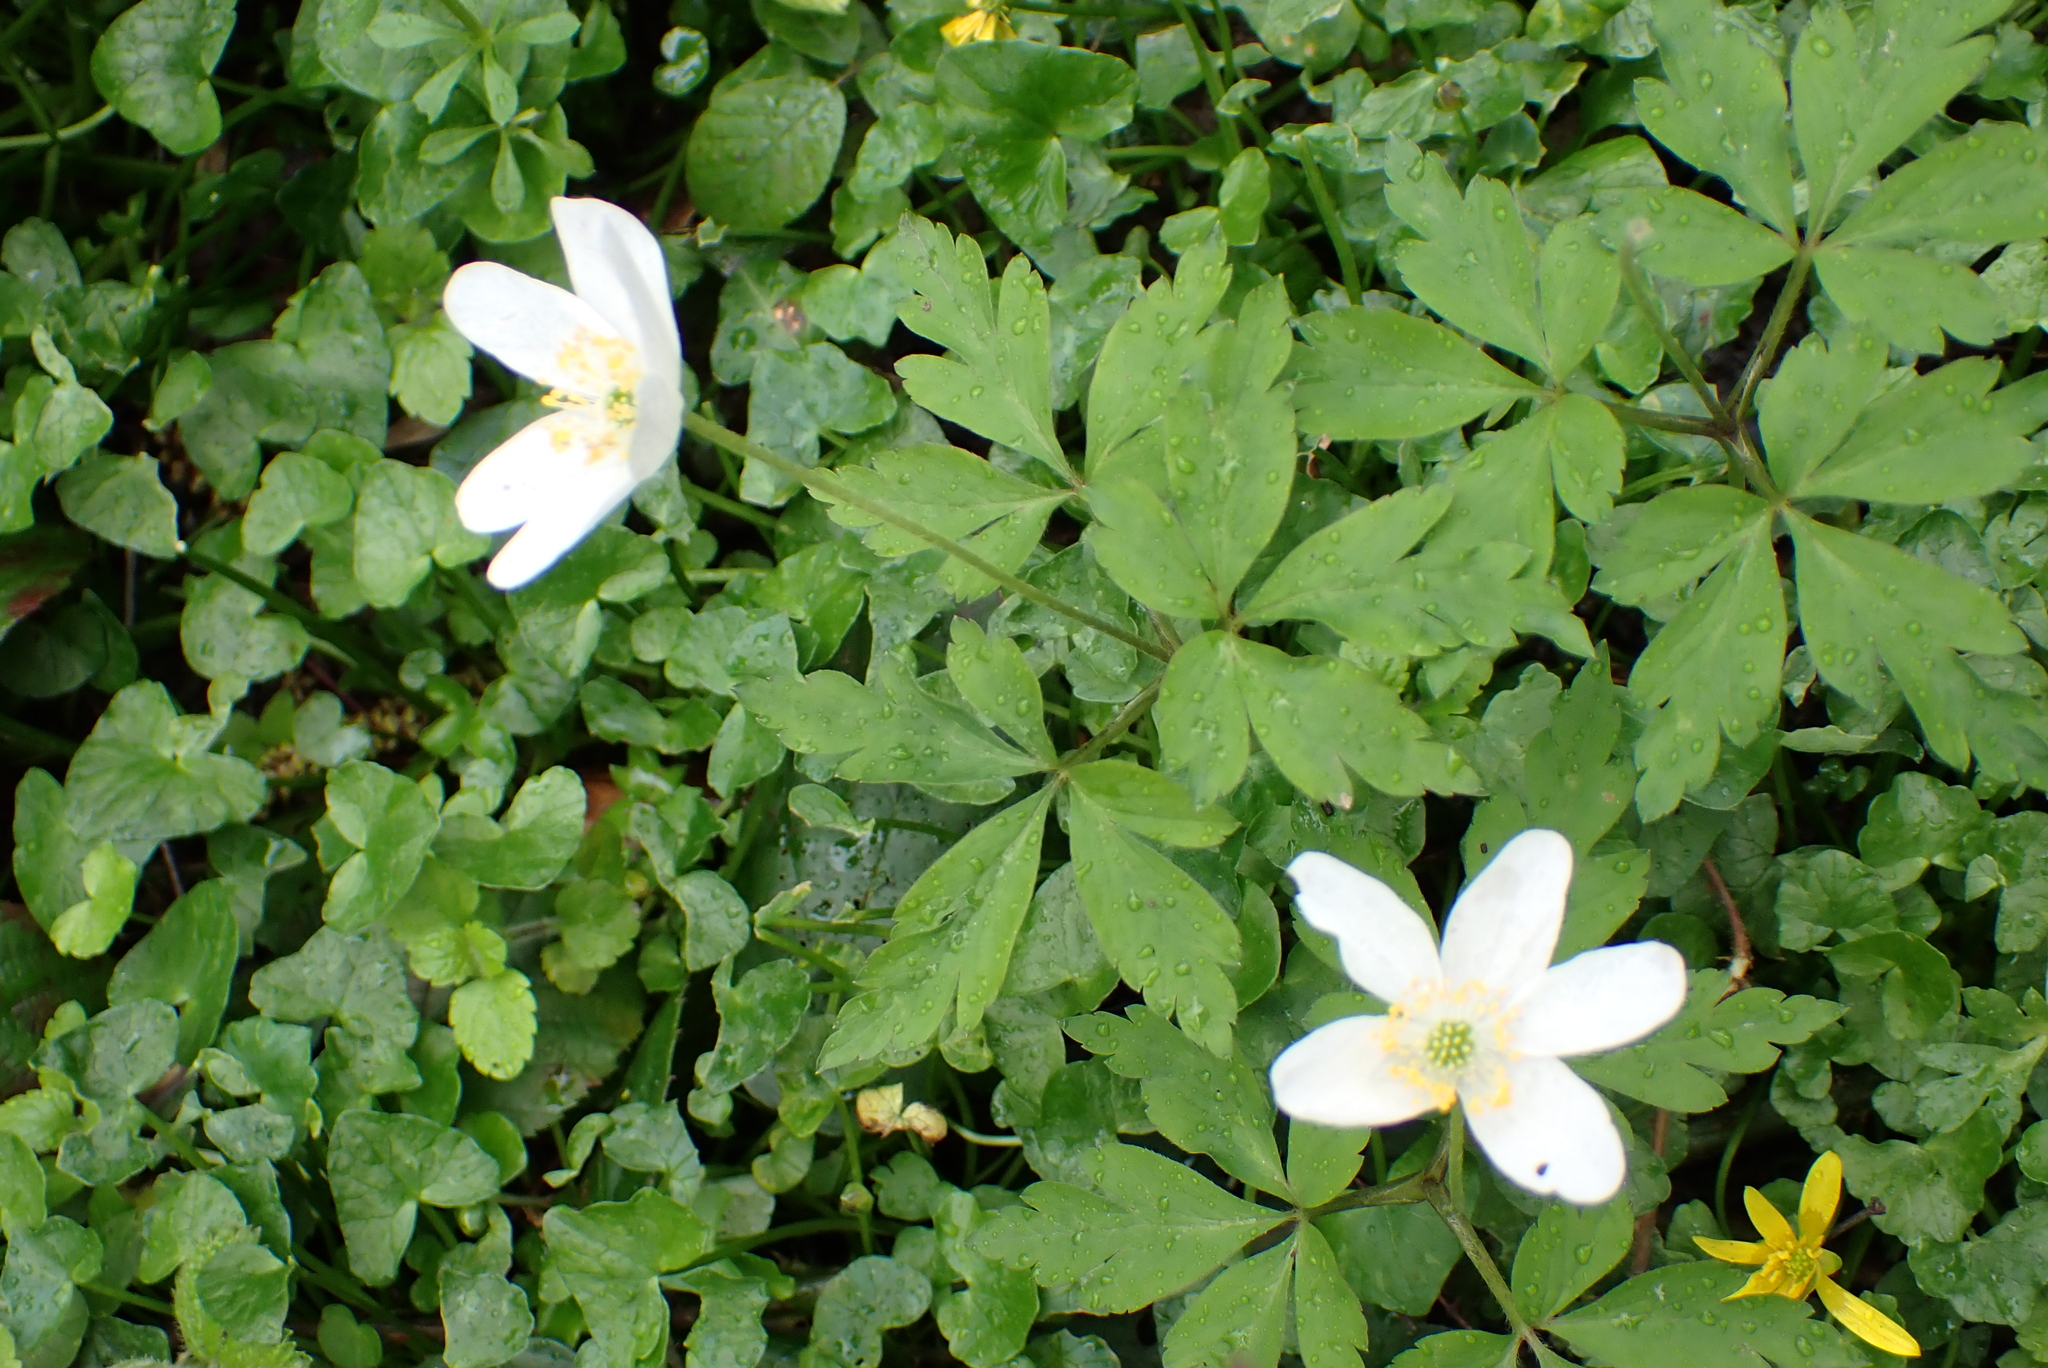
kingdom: Plantae
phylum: Tracheophyta
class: Magnoliopsida
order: Ranunculales
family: Ranunculaceae
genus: Anemone
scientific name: Anemone nemorosa
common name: Wood anemone
